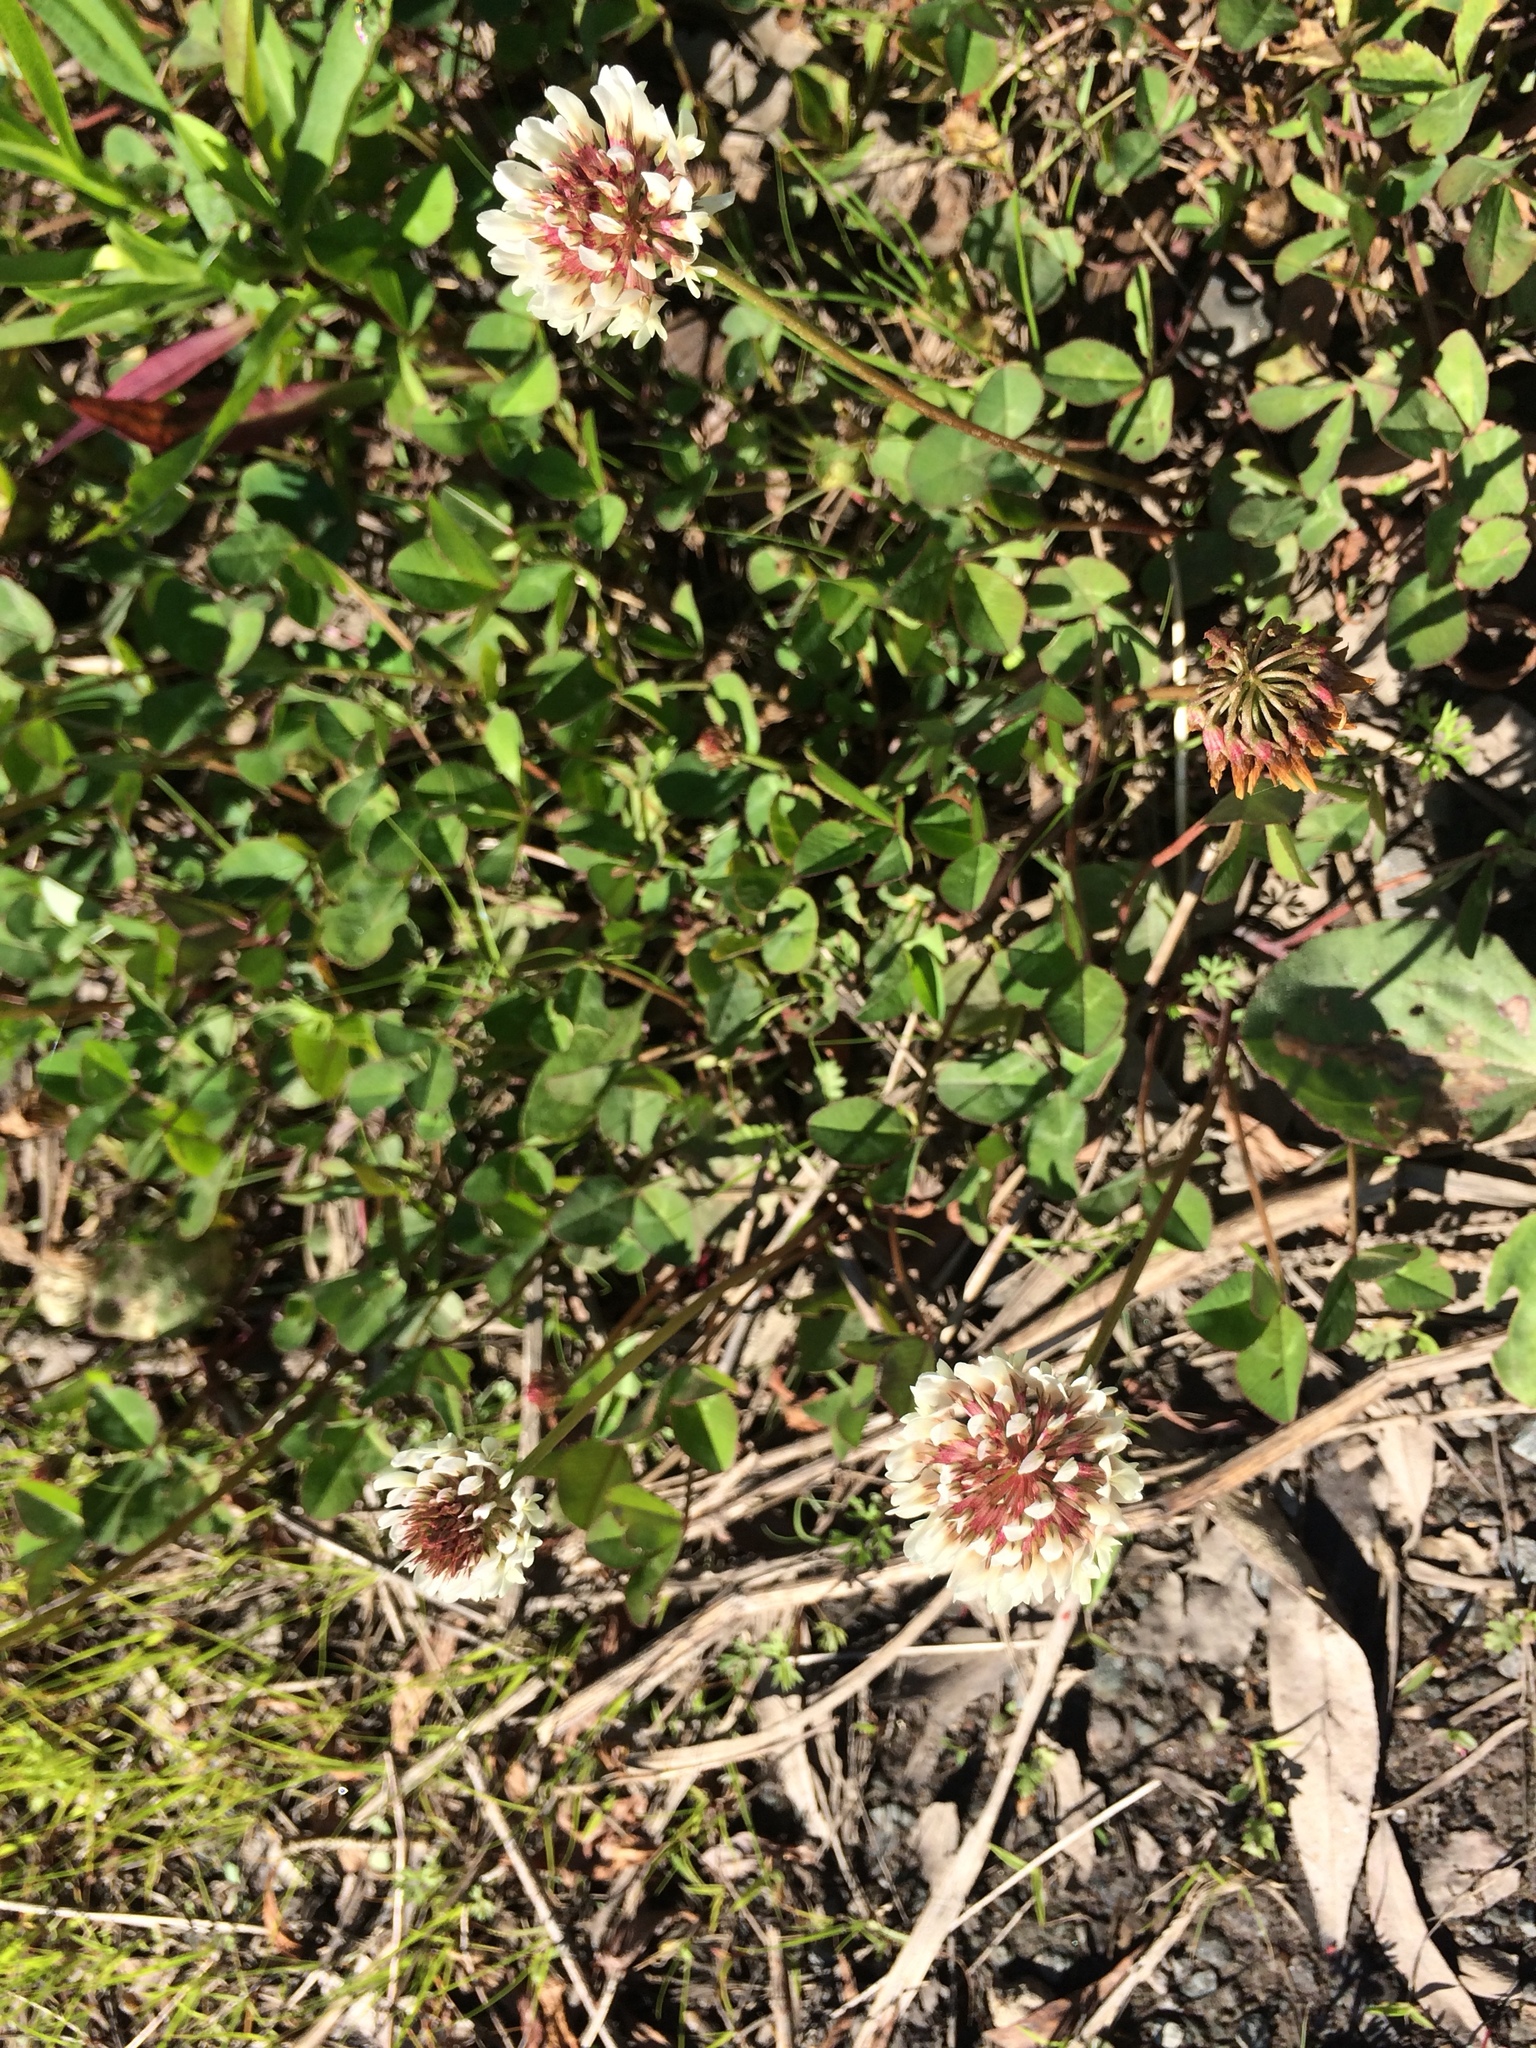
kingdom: Plantae
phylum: Tracheophyta
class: Magnoliopsida
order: Fabales
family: Fabaceae
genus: Trifolium
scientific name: Trifolium repens
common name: White clover
